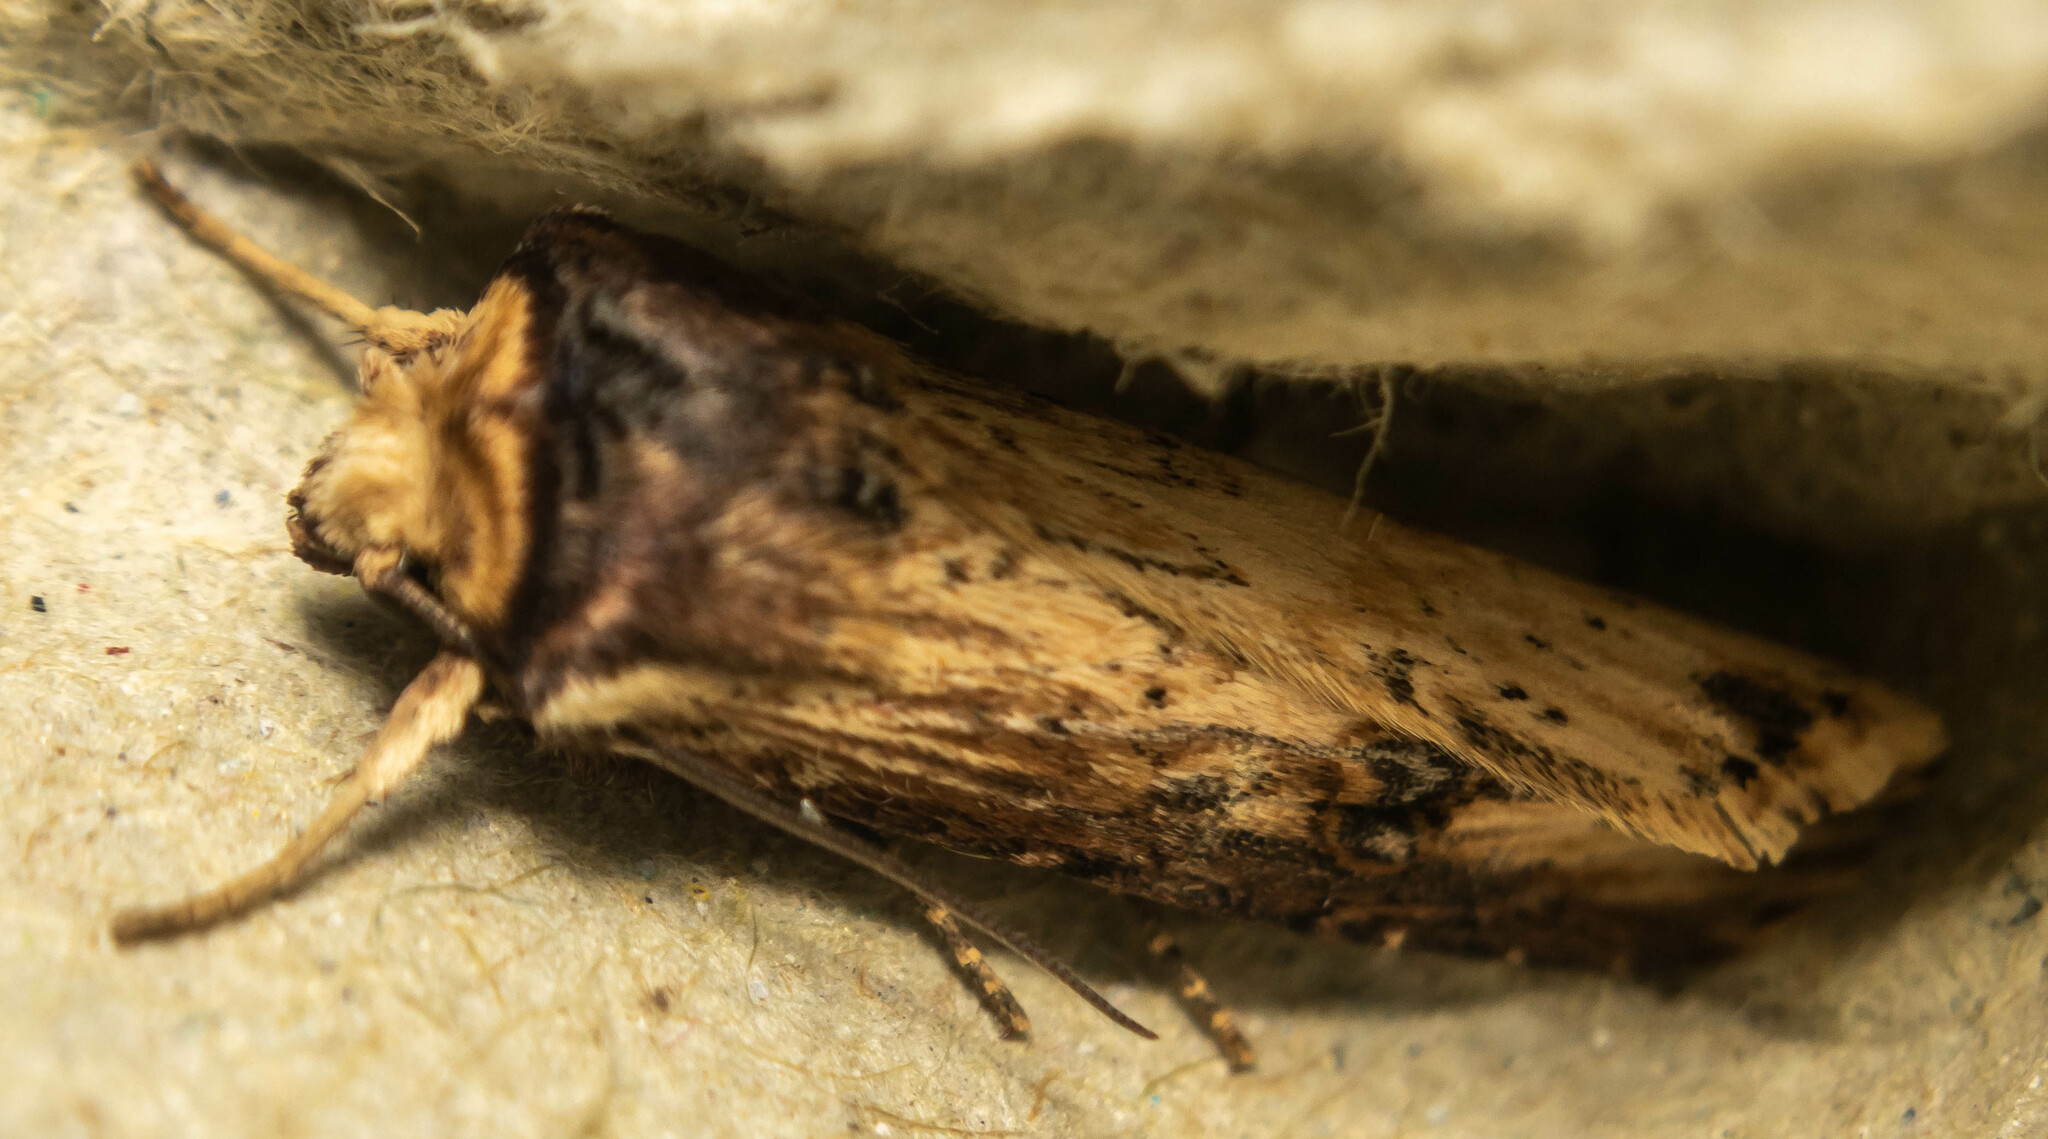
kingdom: Animalia
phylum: Arthropoda
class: Insecta
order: Lepidoptera
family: Noctuidae
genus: Axylia
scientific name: Axylia putris
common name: Flame
